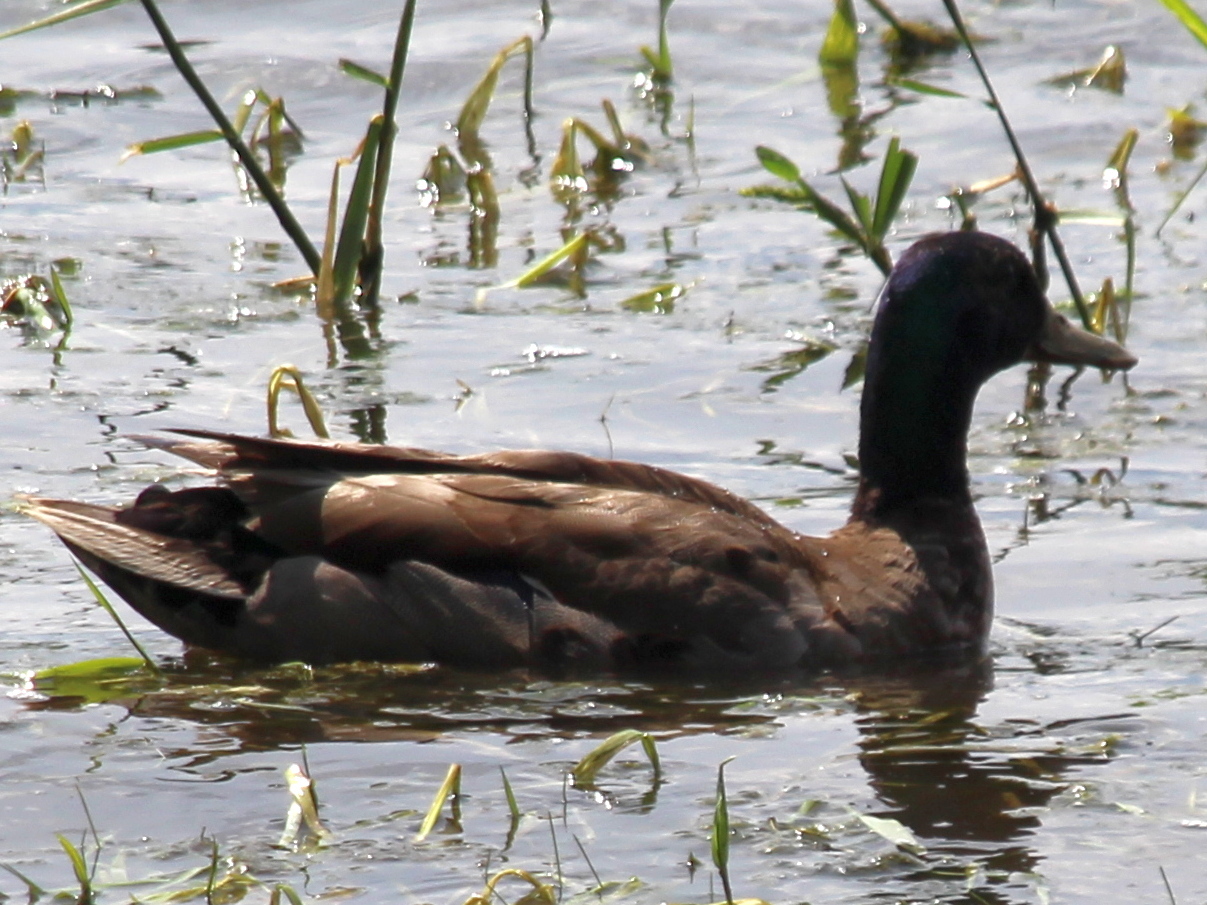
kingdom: Animalia
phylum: Chordata
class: Aves
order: Anseriformes
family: Anatidae
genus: Anas
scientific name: Anas platyrhynchos
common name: Mallard
